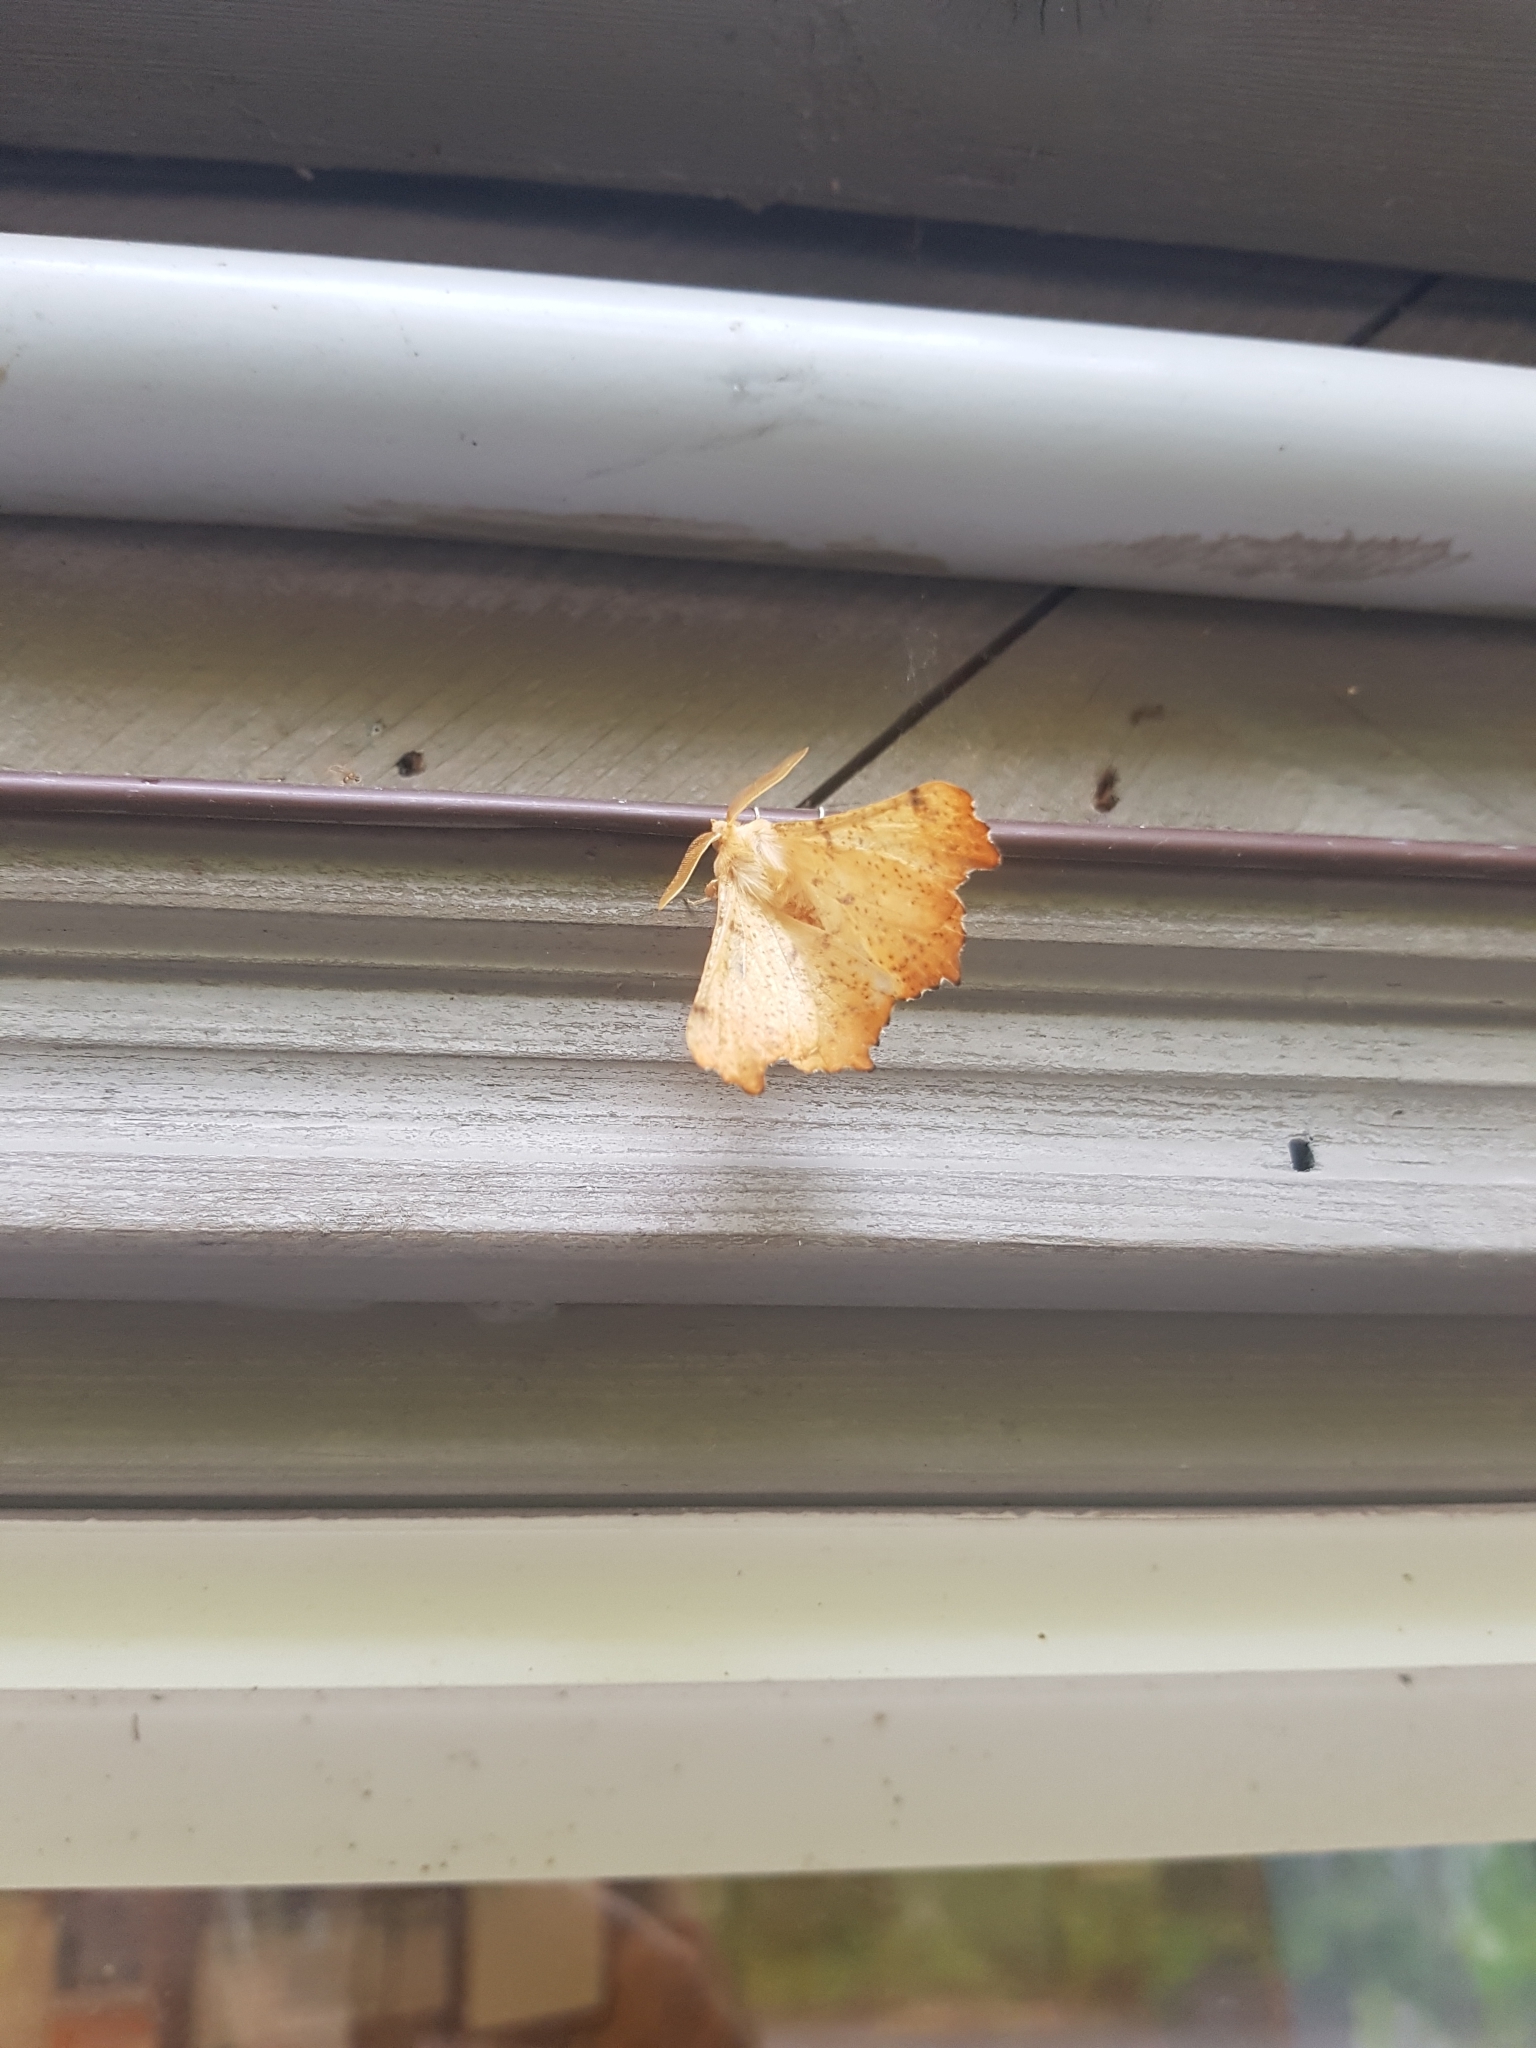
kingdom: Animalia
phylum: Arthropoda
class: Insecta
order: Lepidoptera
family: Geometridae
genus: Ennomos
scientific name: Ennomos magnaria
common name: Maple spanworm
